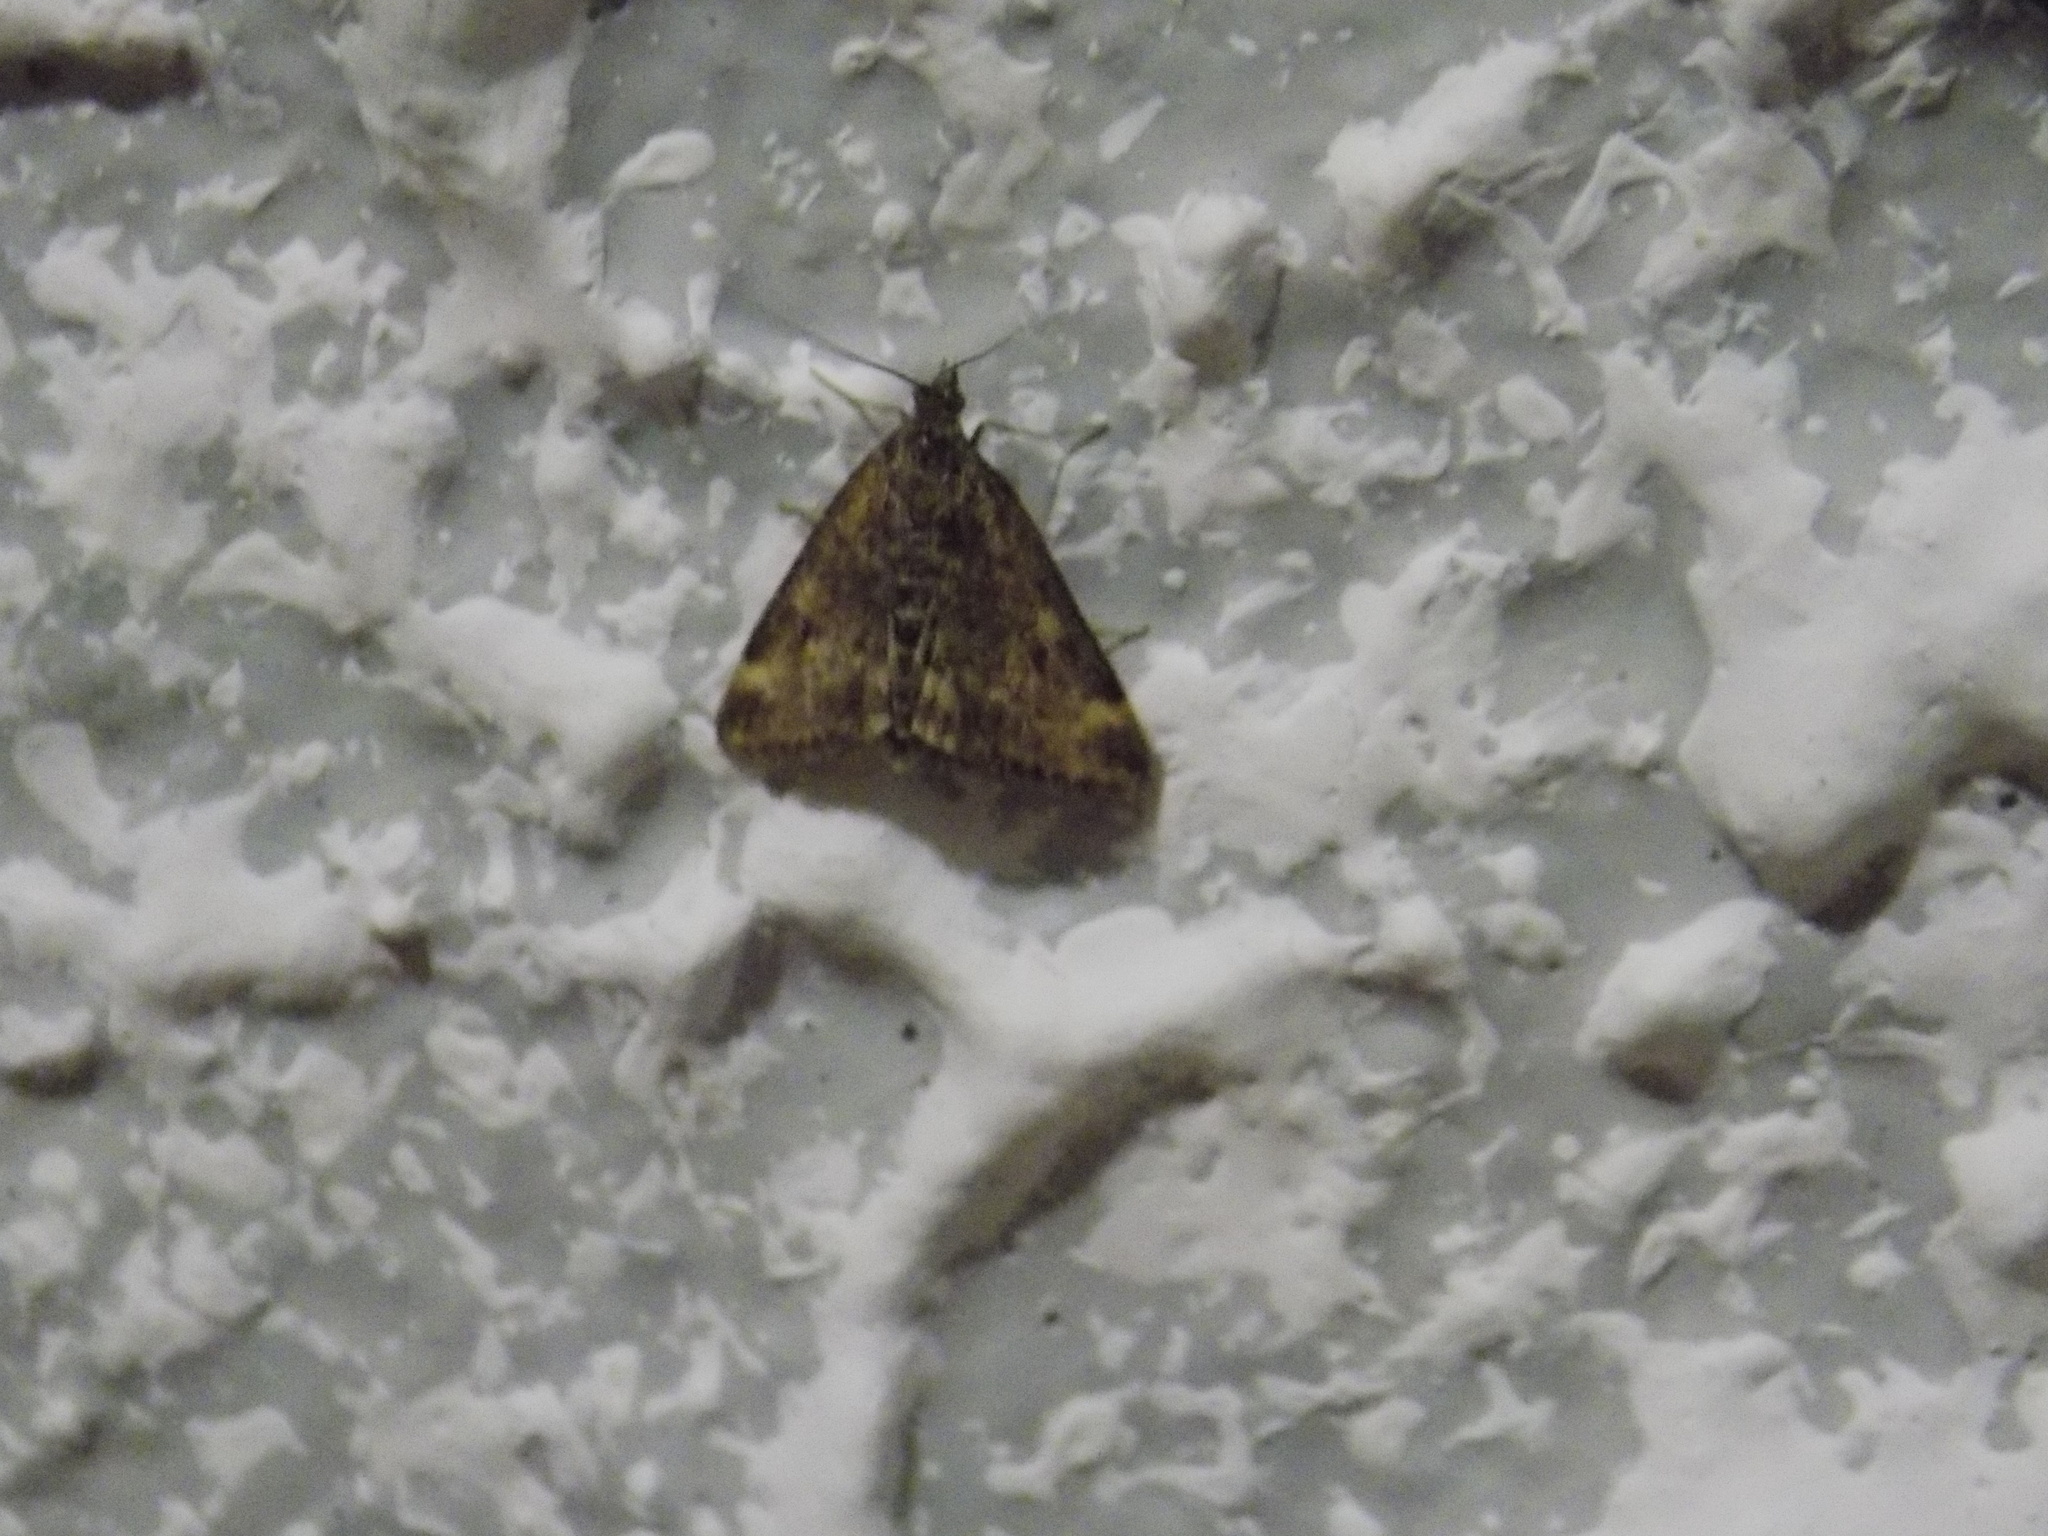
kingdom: Animalia
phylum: Arthropoda
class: Insecta
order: Lepidoptera
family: Crambidae
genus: Pyrausta
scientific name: Pyrausta despicata
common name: Straw-barred pearl
